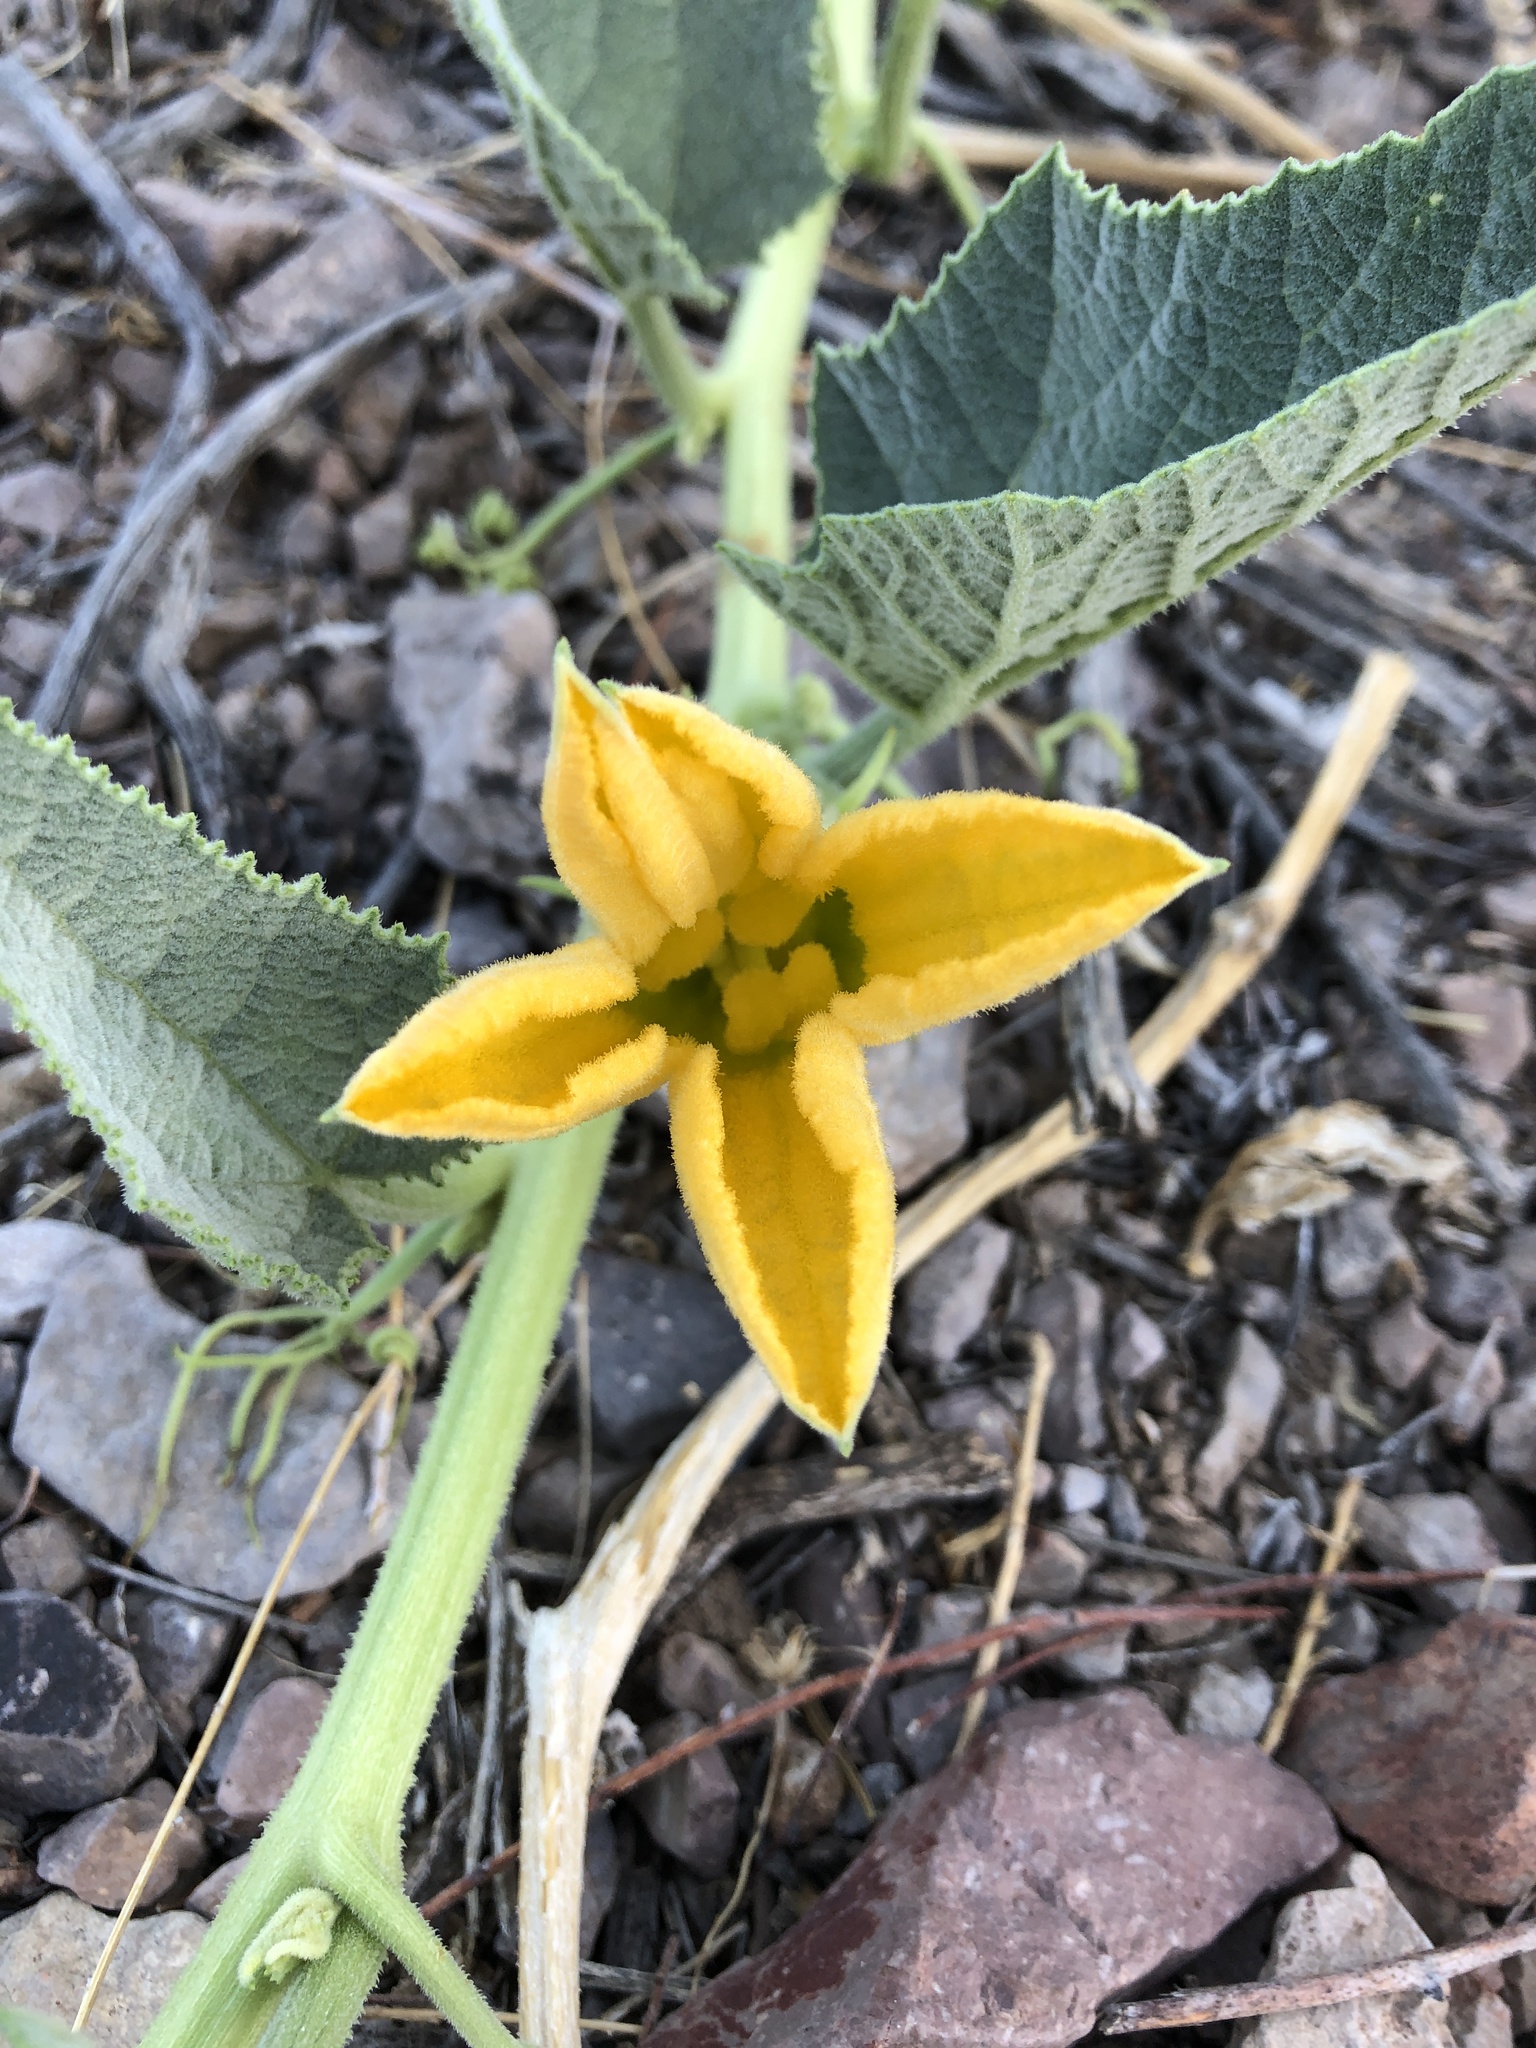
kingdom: Plantae
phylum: Tracheophyta
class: Magnoliopsida
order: Cucurbitales
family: Cucurbitaceae
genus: Cucurbita
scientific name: Cucurbita foetidissima
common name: Buffalo gourd
